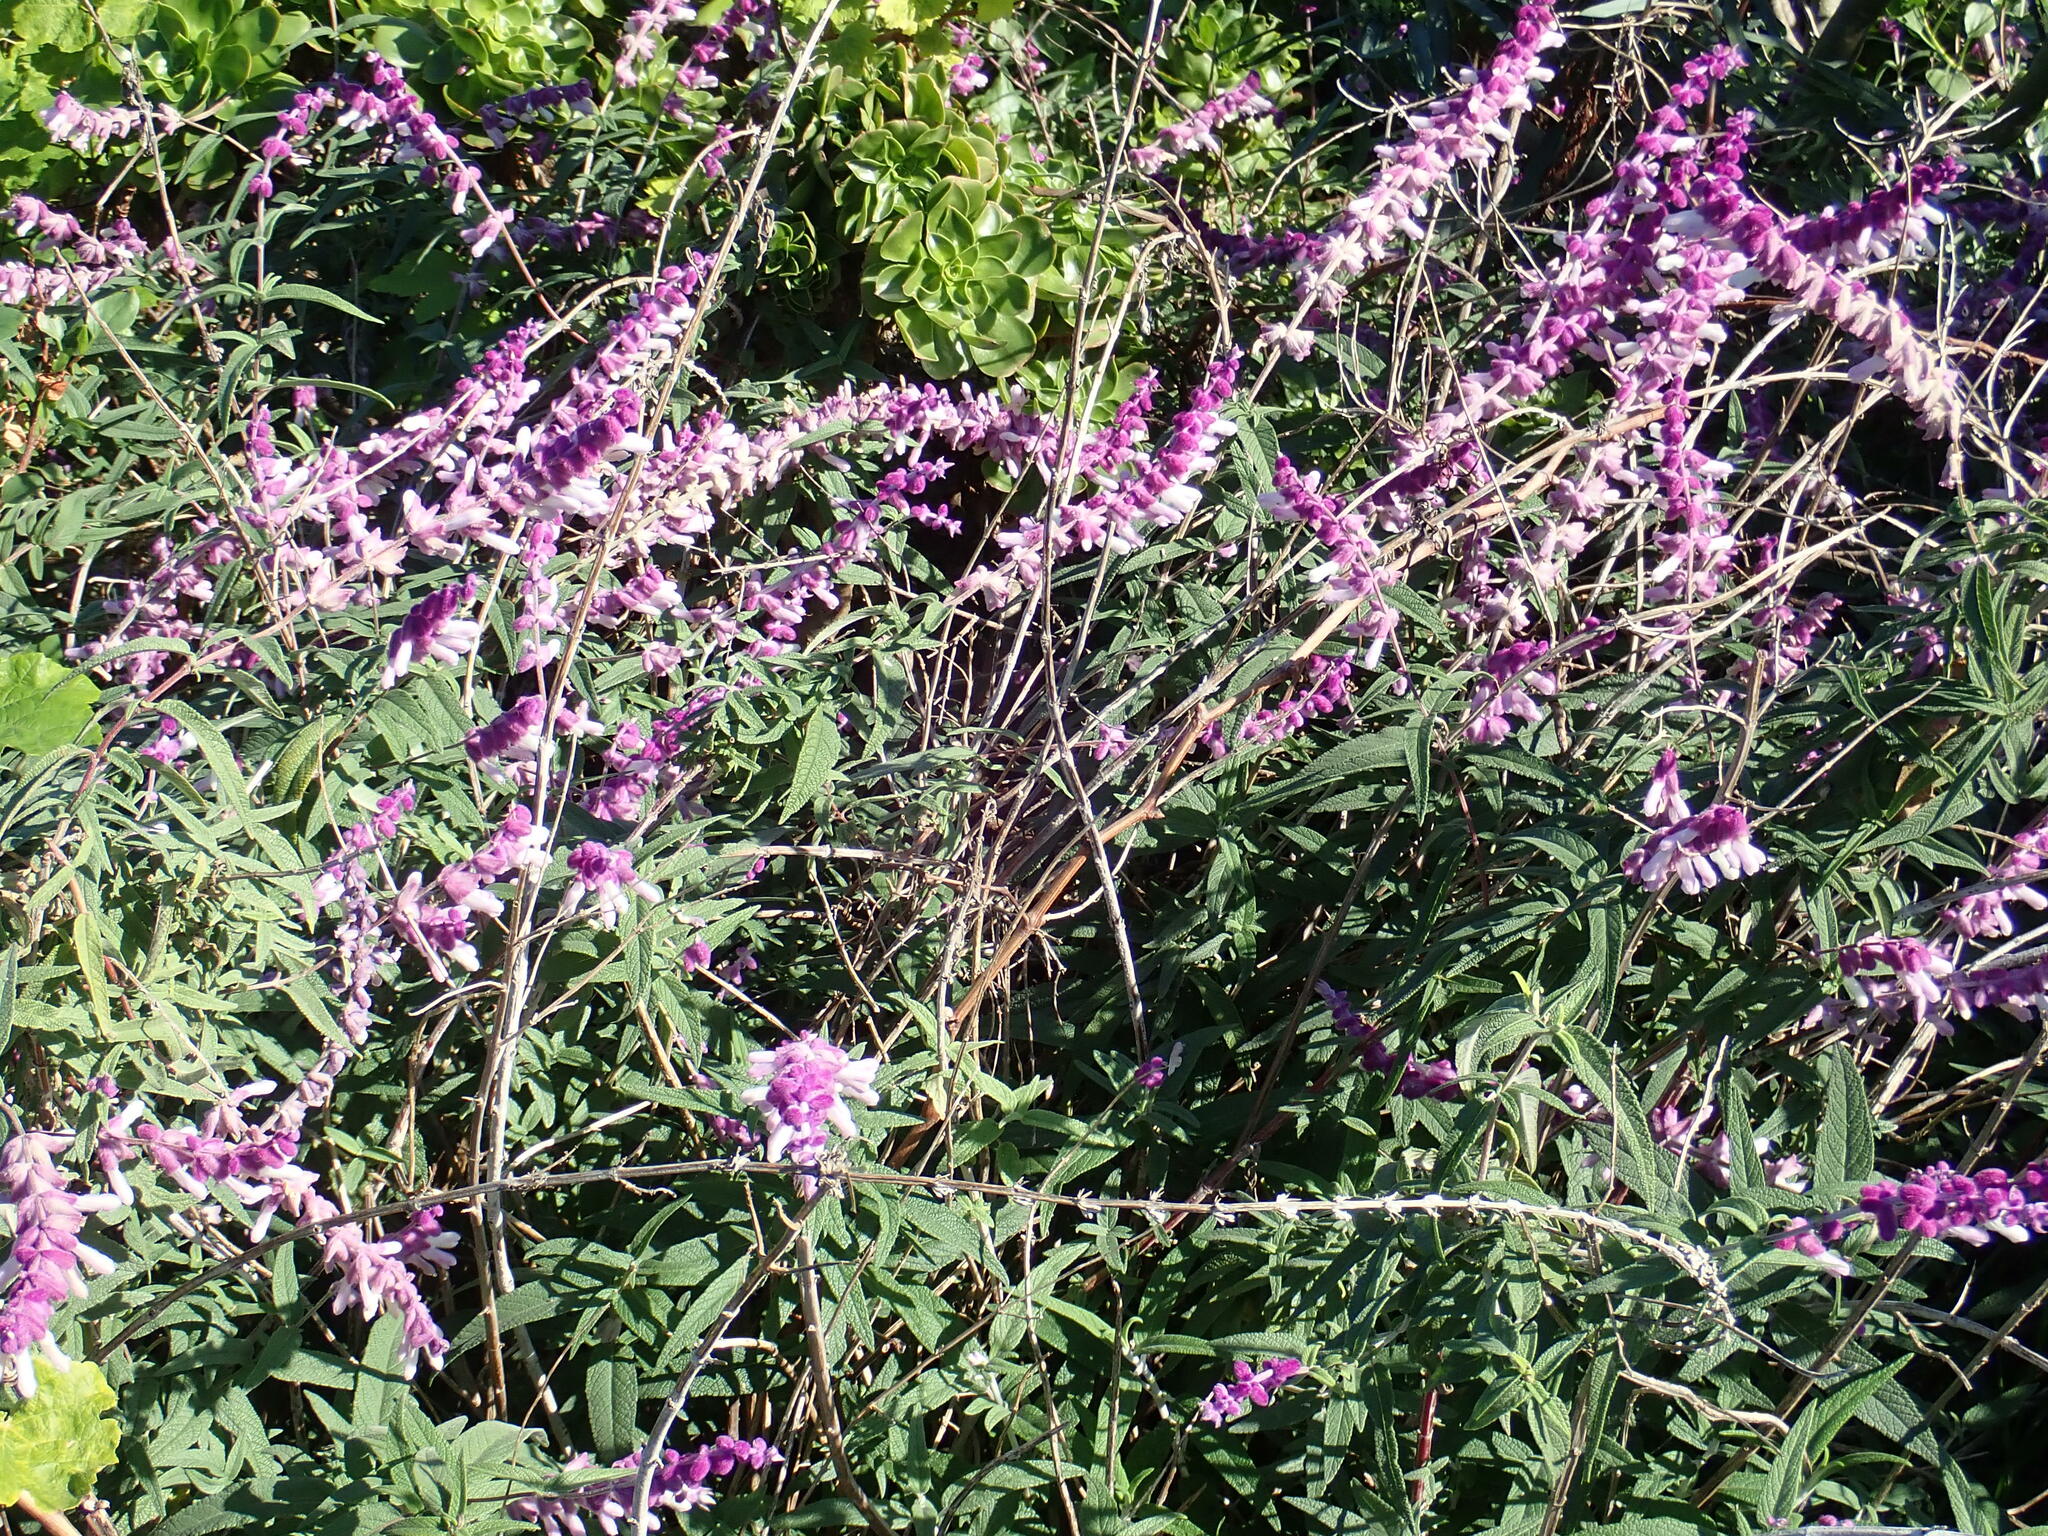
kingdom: Plantae
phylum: Tracheophyta
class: Magnoliopsida
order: Lamiales
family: Lamiaceae
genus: Salvia
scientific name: Salvia leucantha
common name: Mexican bush sage
